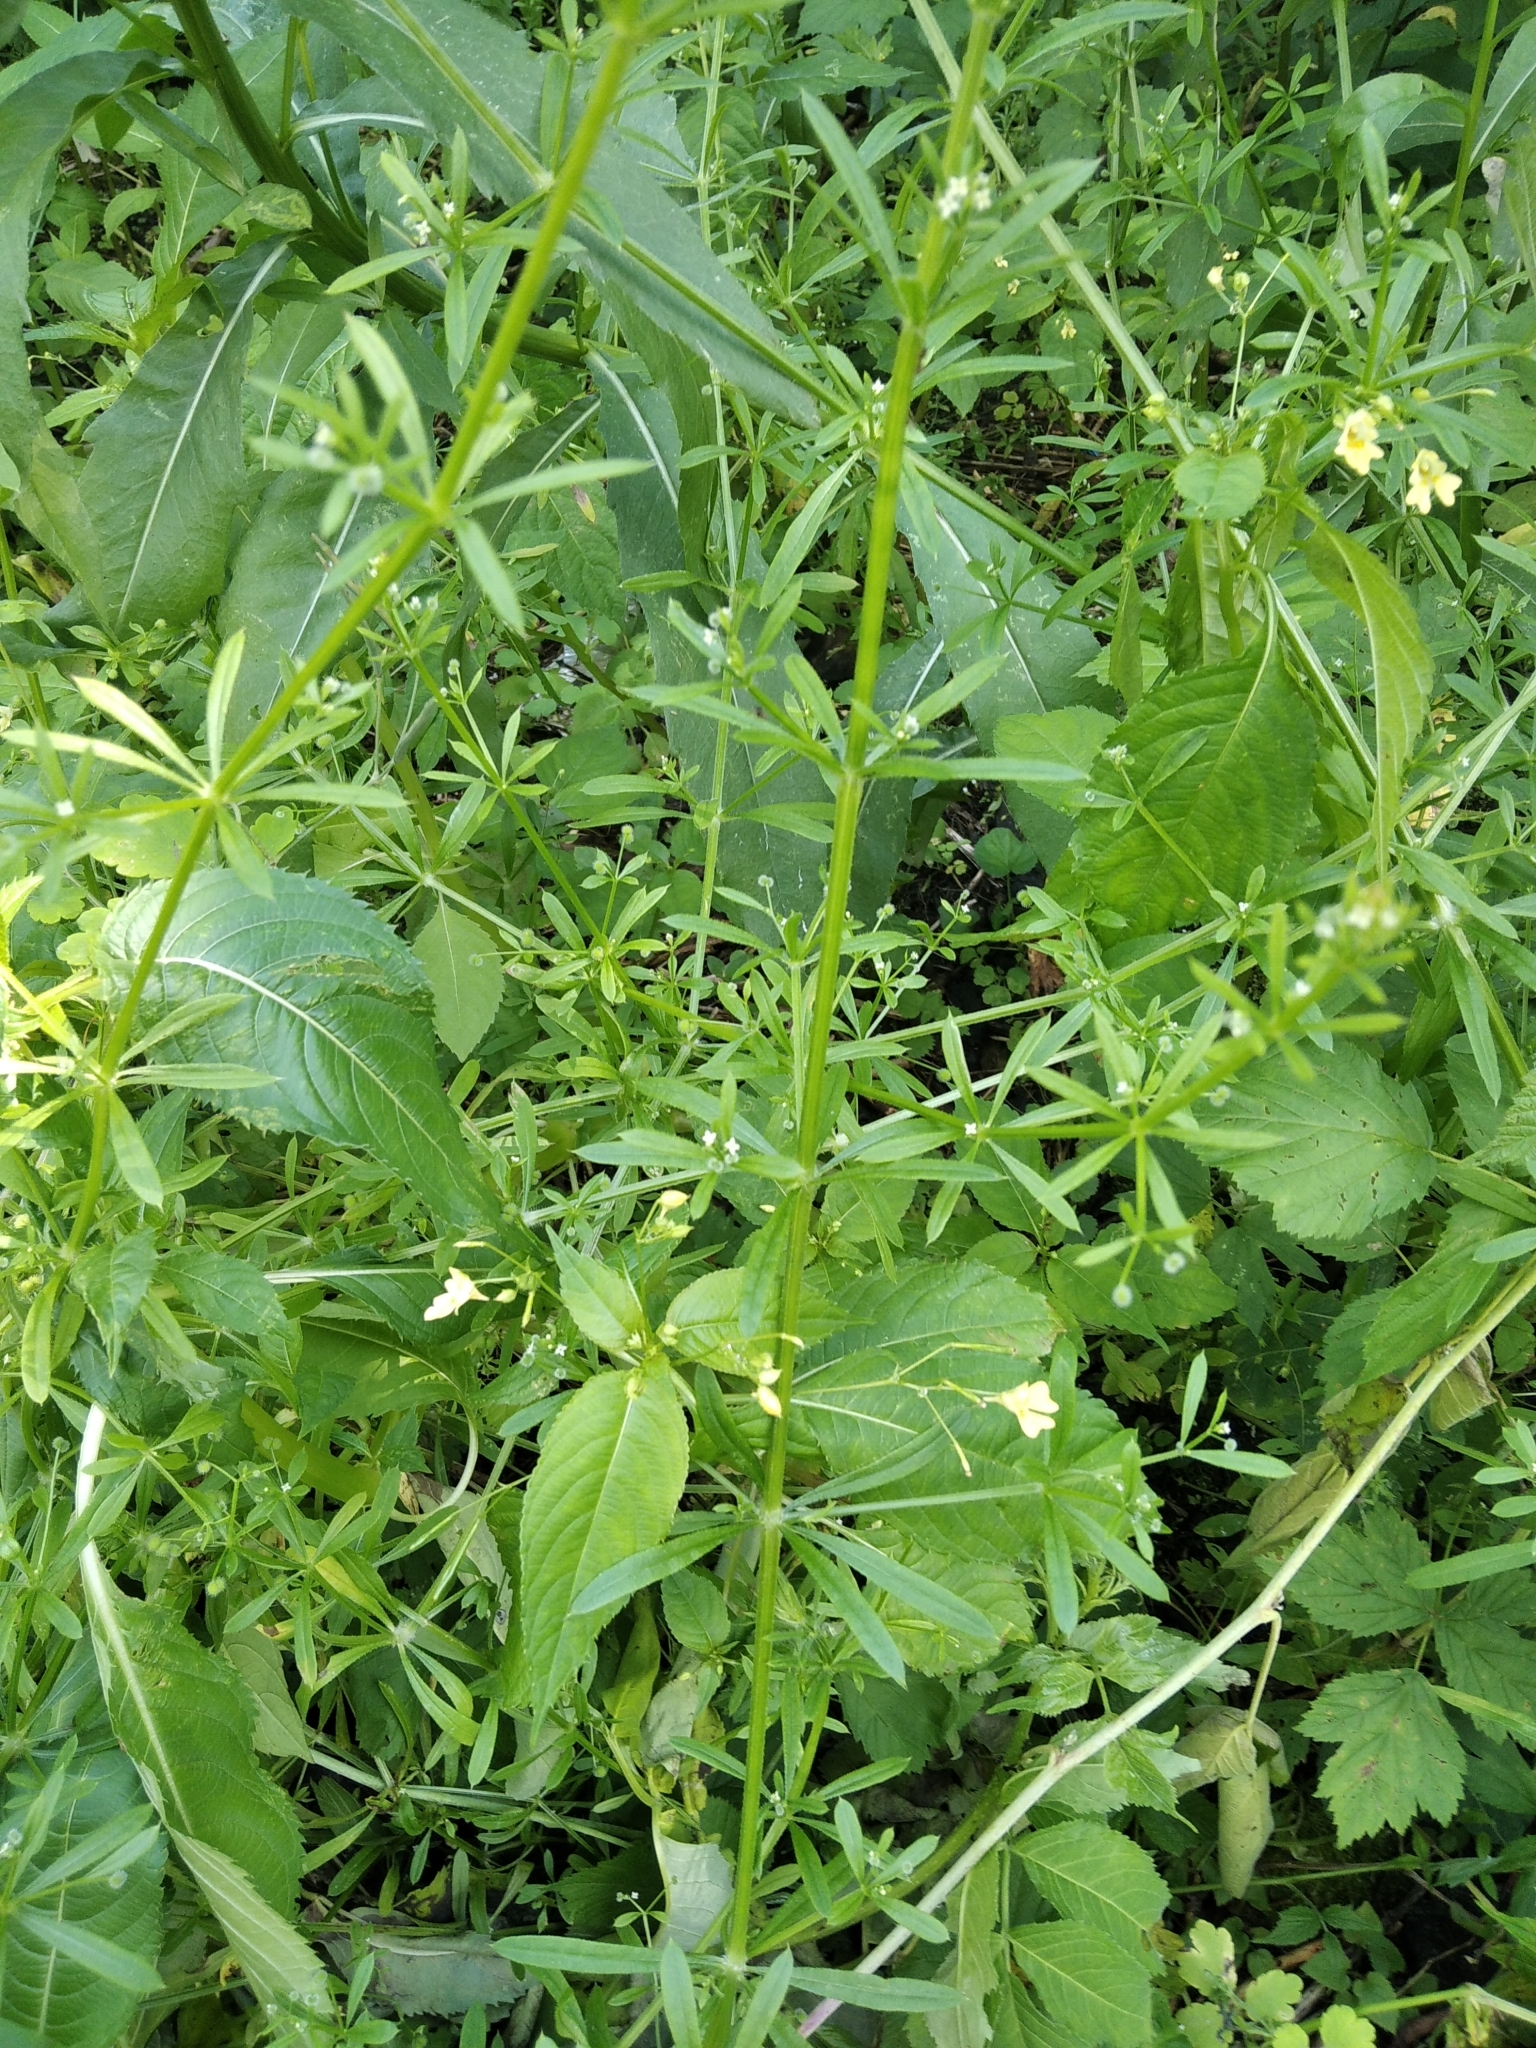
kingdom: Plantae
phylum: Tracheophyta
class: Magnoliopsida
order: Gentianales
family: Rubiaceae
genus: Galium
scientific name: Galium aparine
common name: Cleavers
